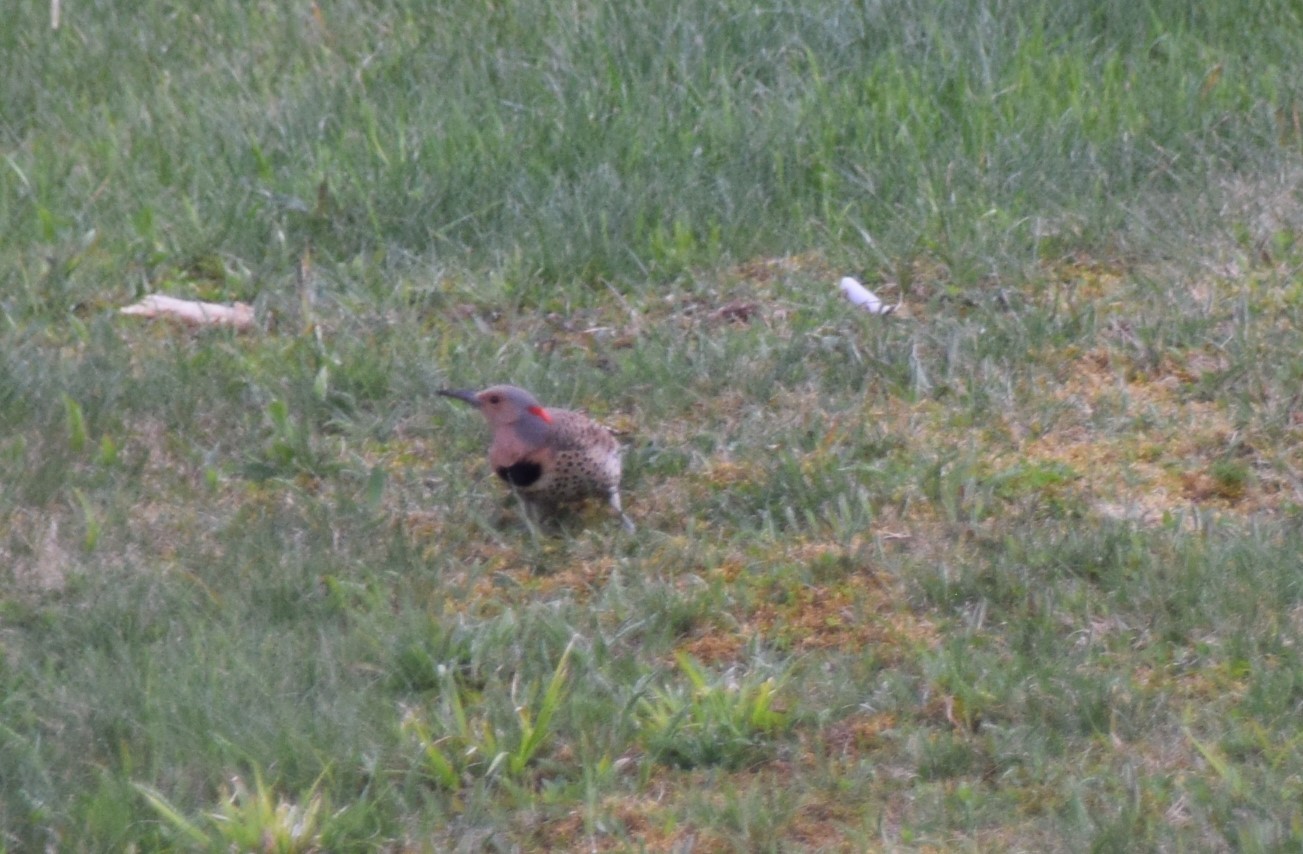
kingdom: Animalia
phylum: Chordata
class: Aves
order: Piciformes
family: Picidae
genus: Colaptes
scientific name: Colaptes auratus
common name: Northern flicker
